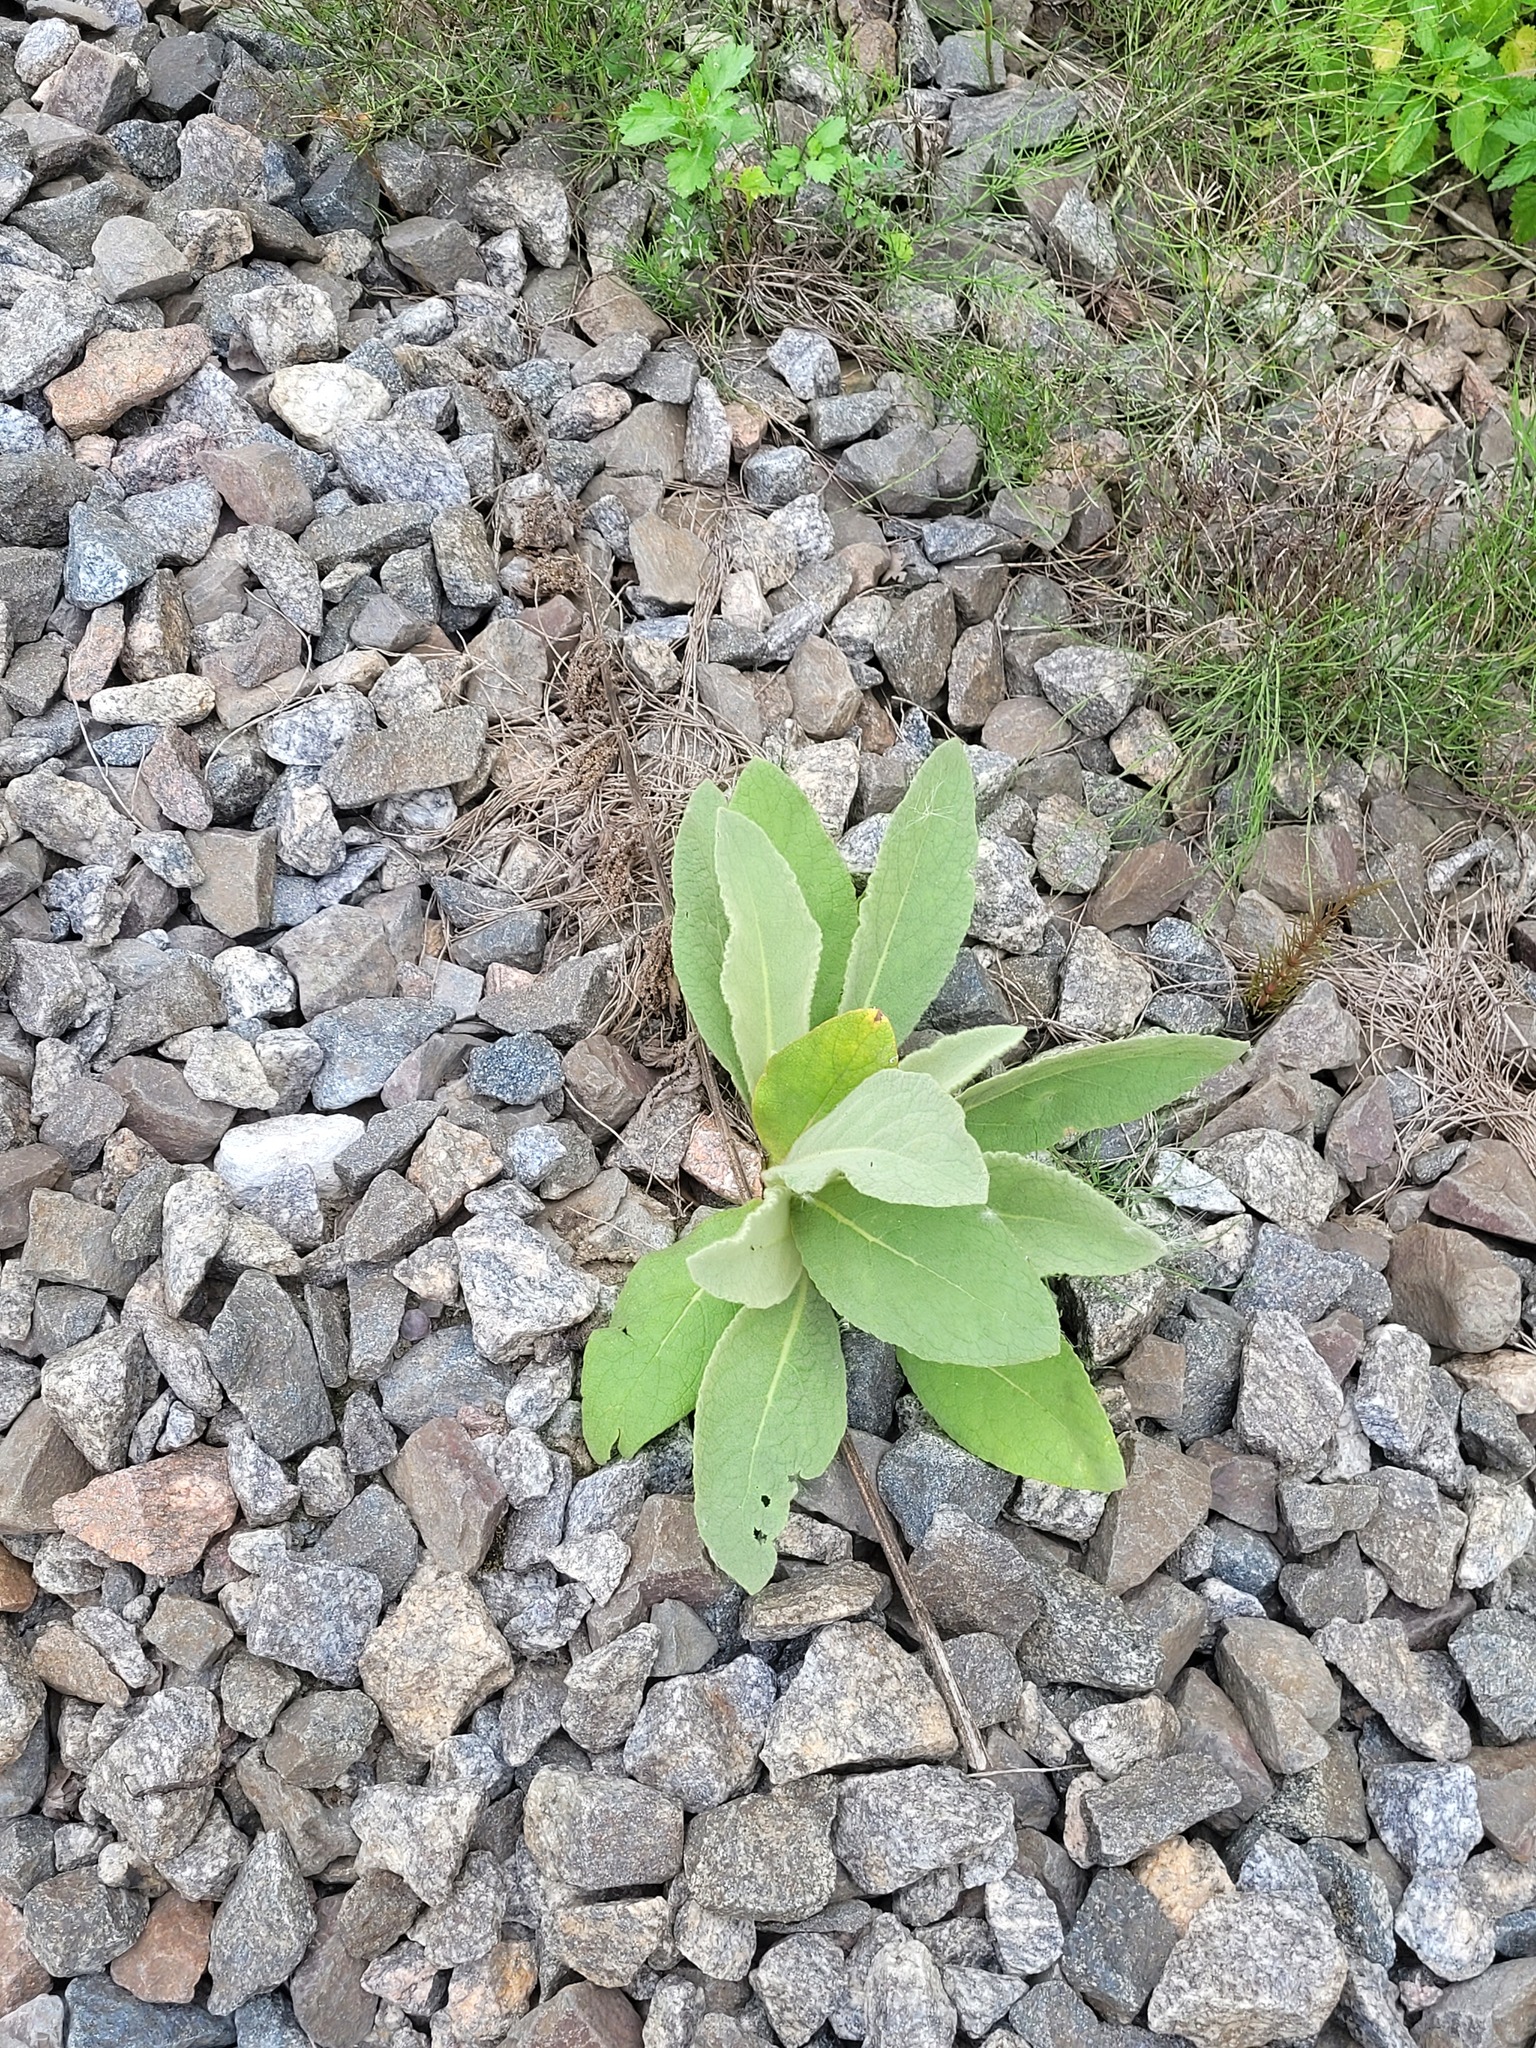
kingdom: Plantae
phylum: Tracheophyta
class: Magnoliopsida
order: Lamiales
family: Scrophulariaceae
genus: Verbascum
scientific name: Verbascum thapsus
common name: Common mullein
